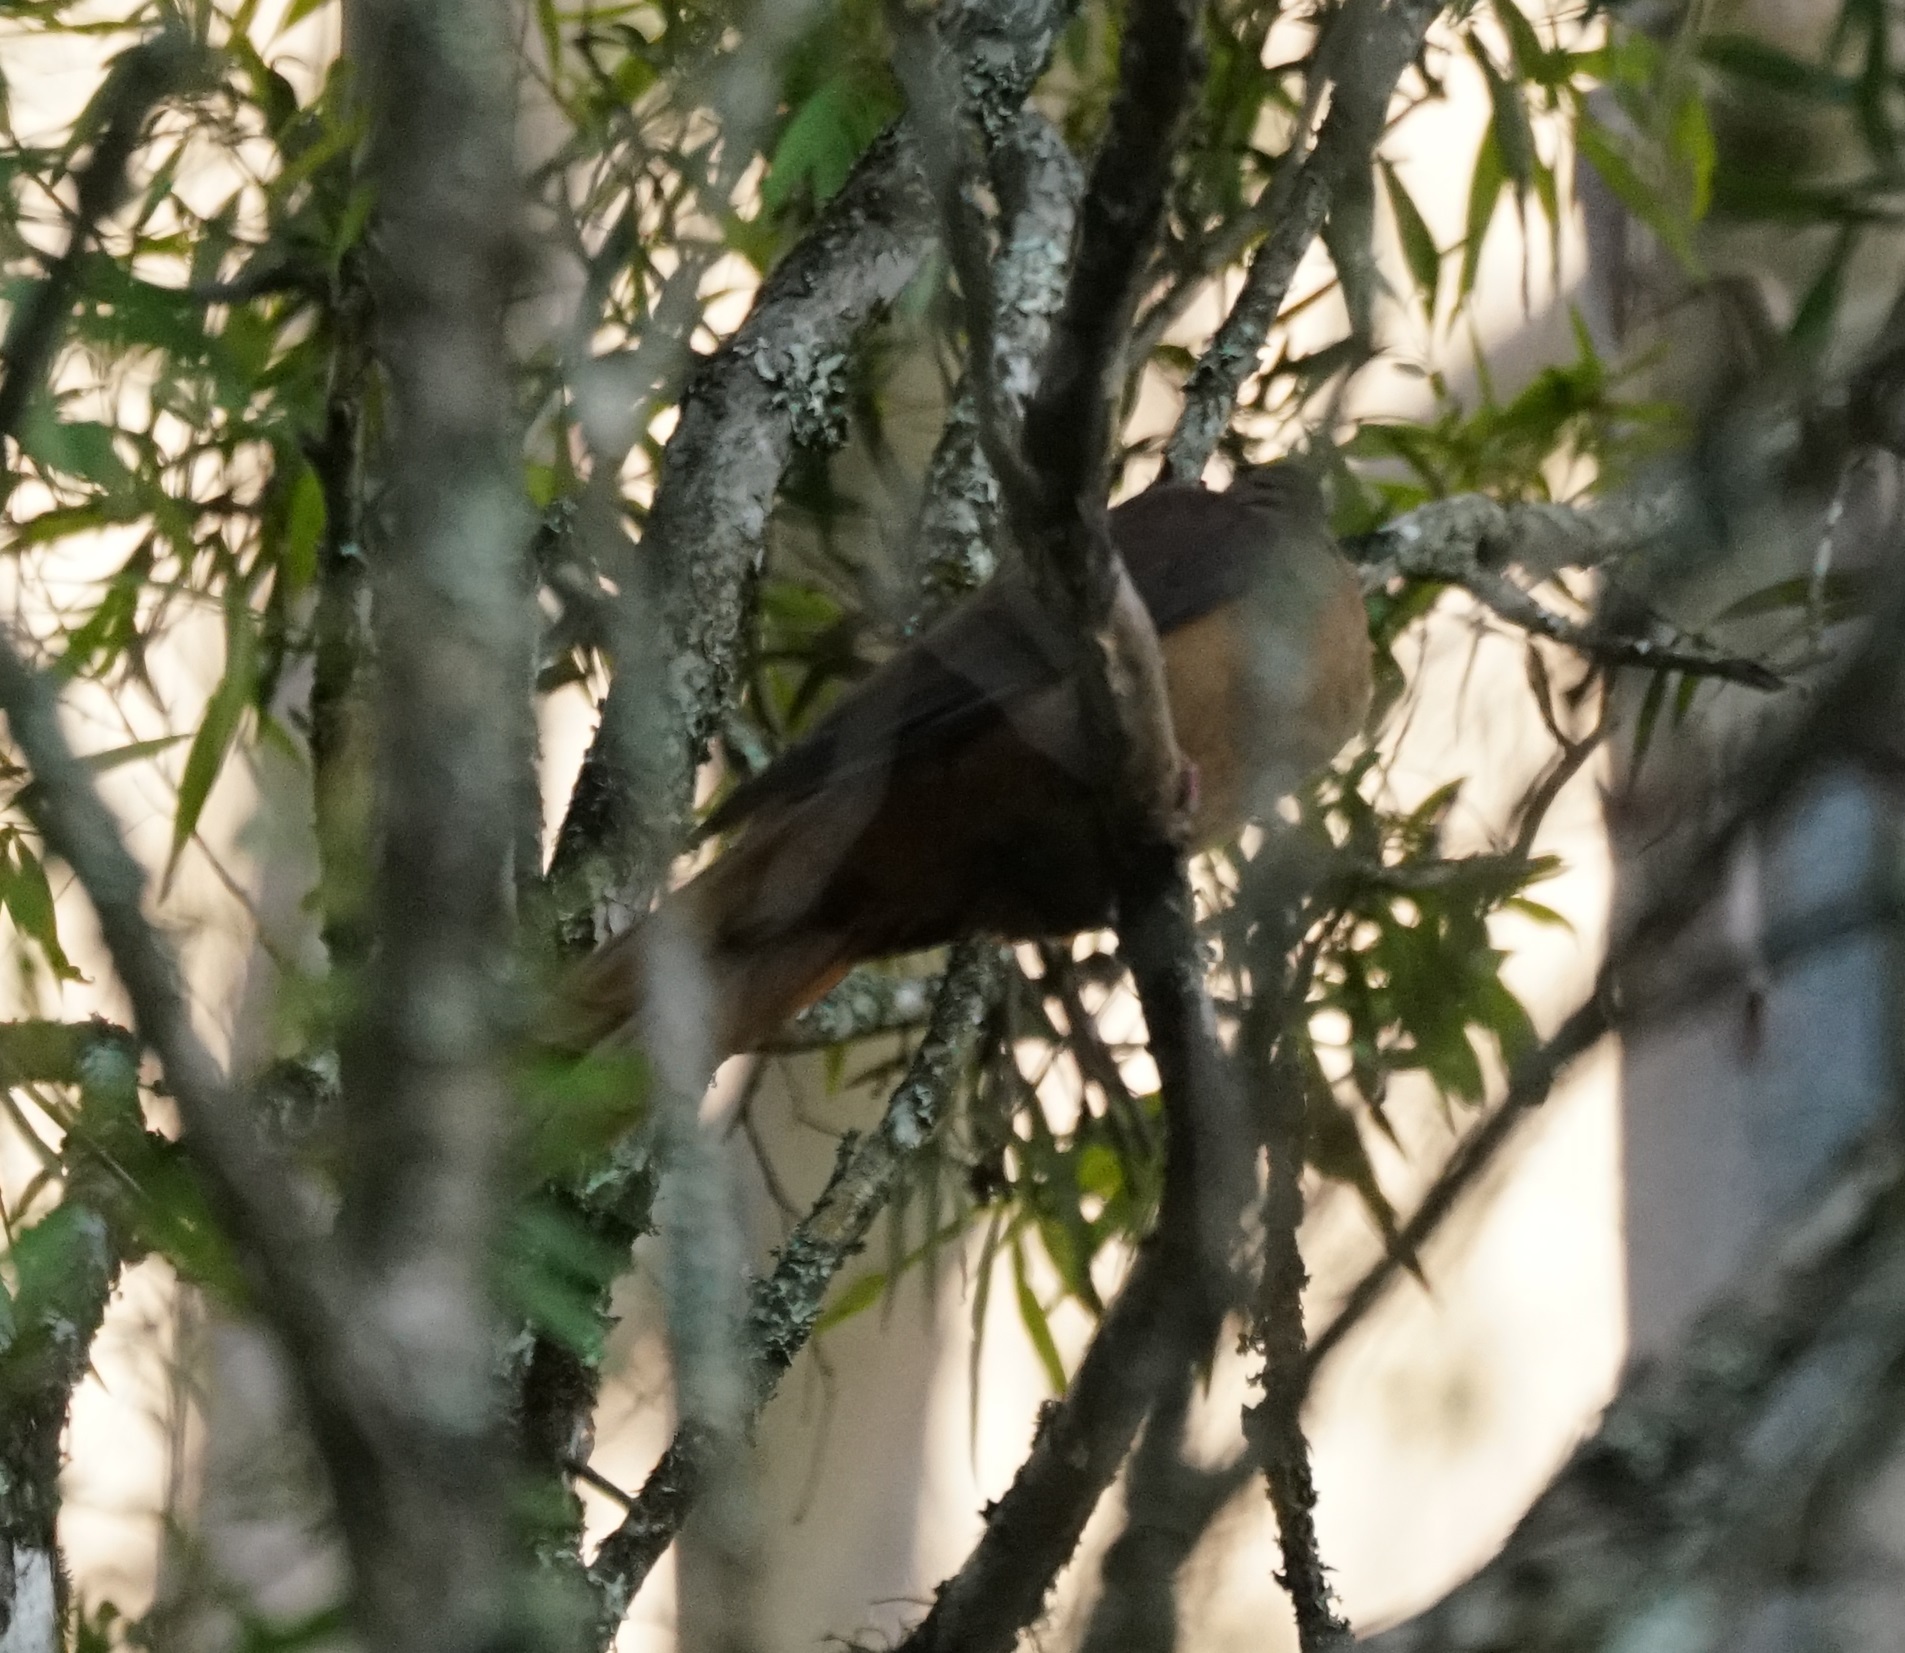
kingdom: Animalia
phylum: Chordata
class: Aves
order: Columbiformes
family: Columbidae
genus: Macropygia
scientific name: Macropygia phasianella
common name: Brown cuckoo-dove
